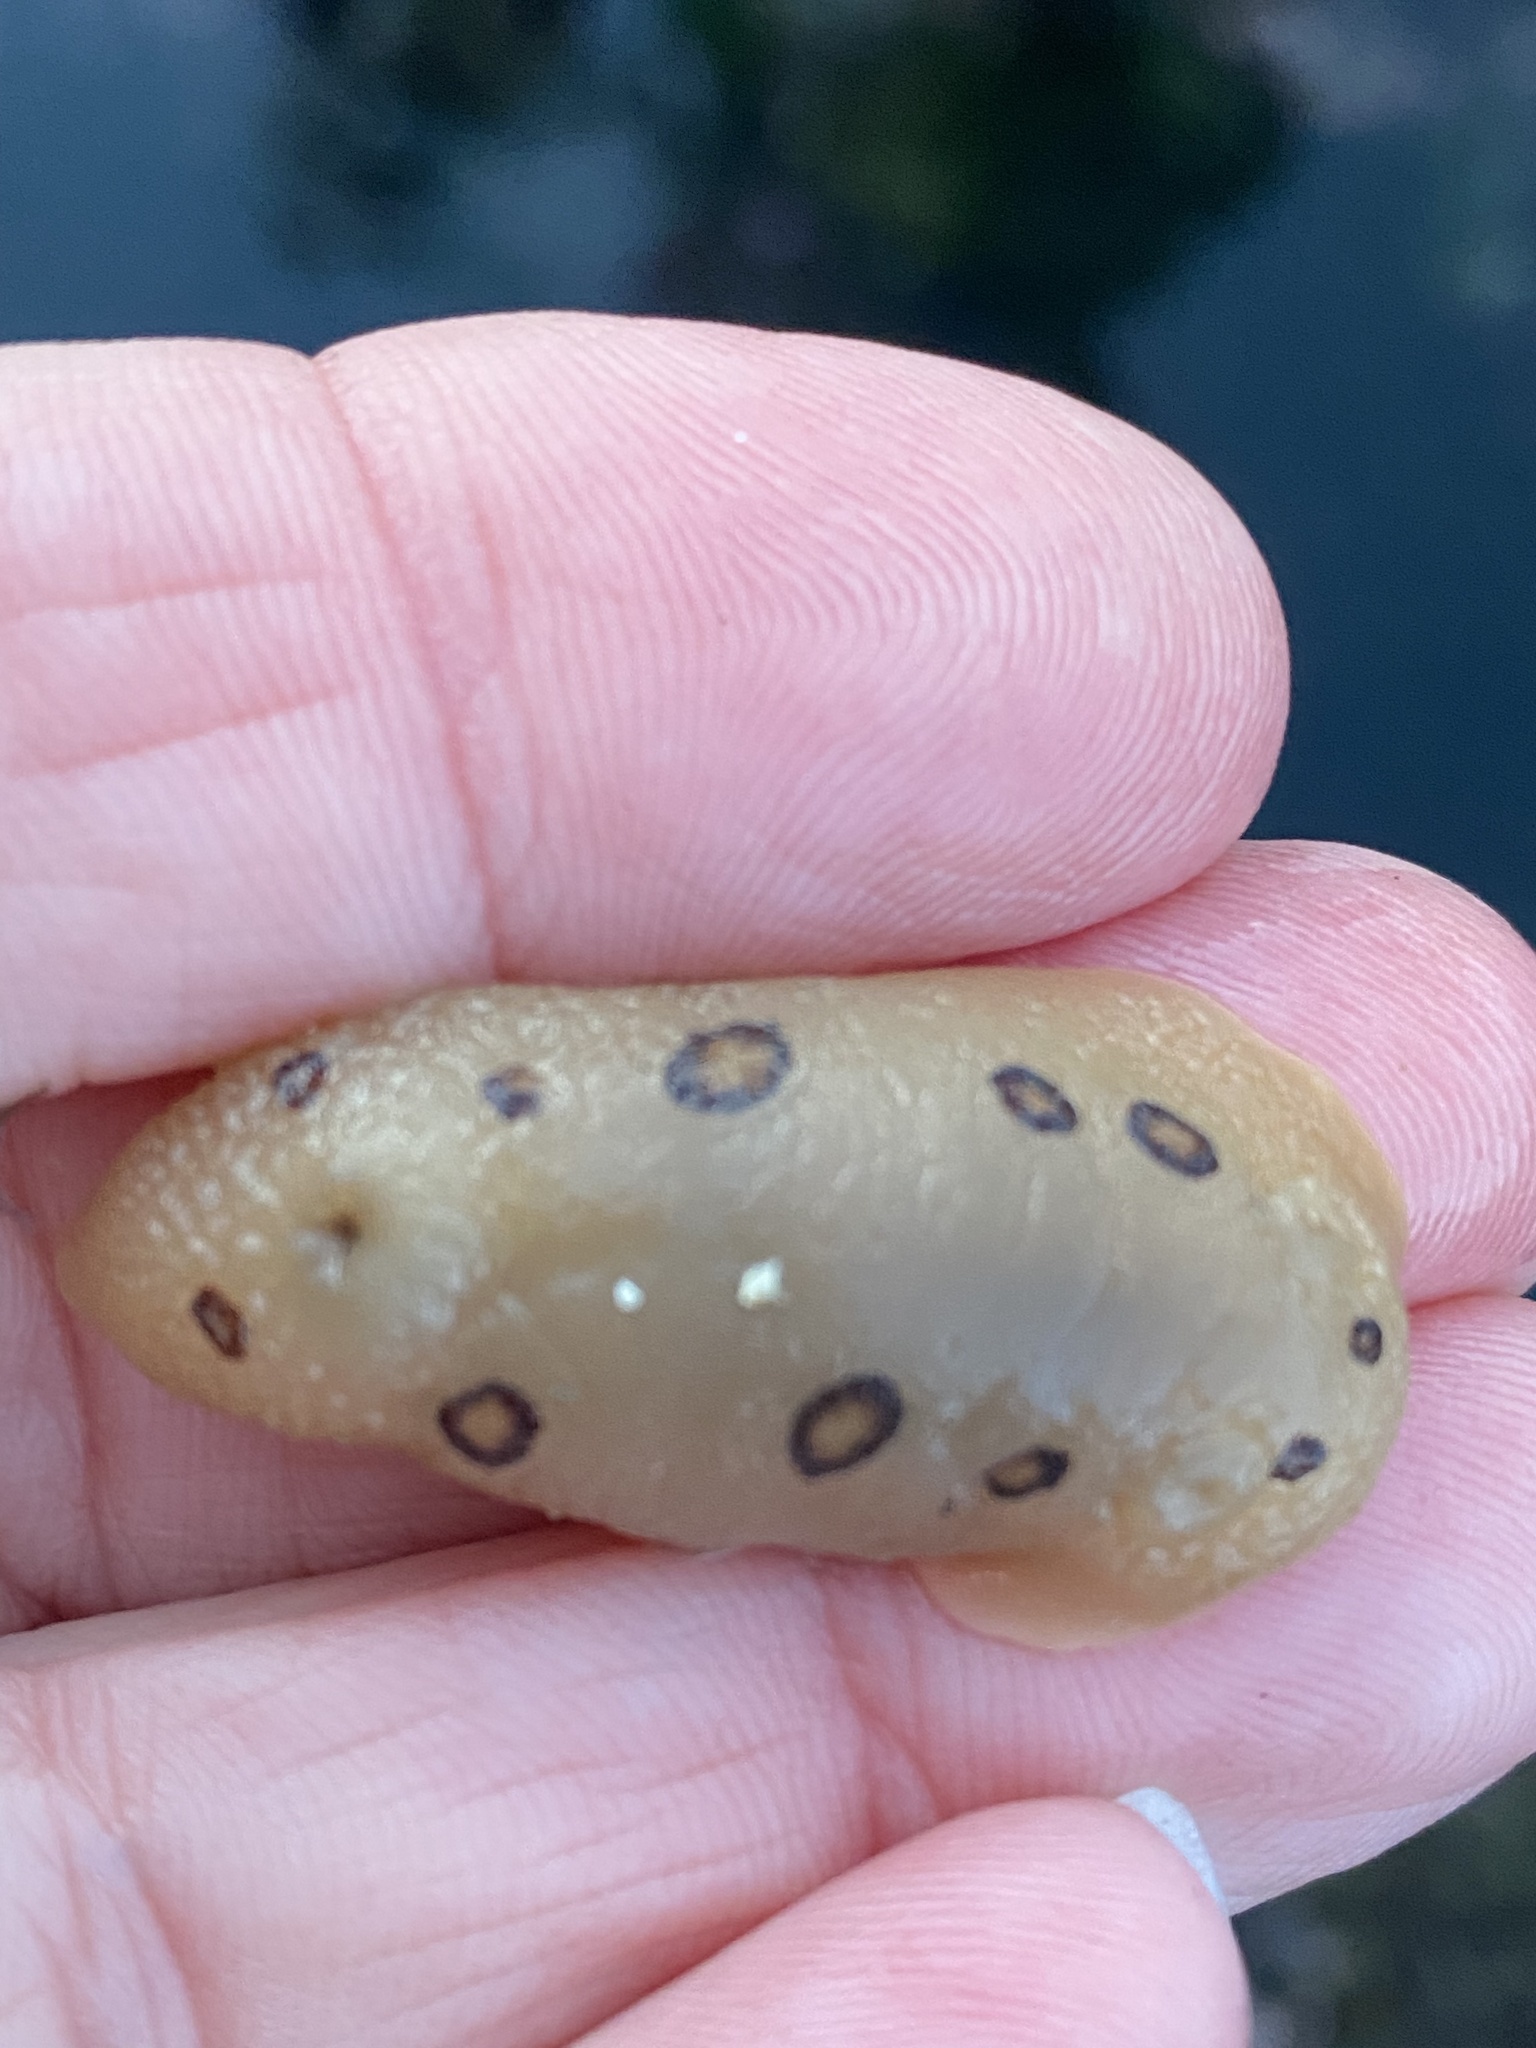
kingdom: Animalia
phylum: Mollusca
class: Gastropoda
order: Nudibranchia
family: Discodorididae
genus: Diaulula
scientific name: Diaulula sandiegensis
